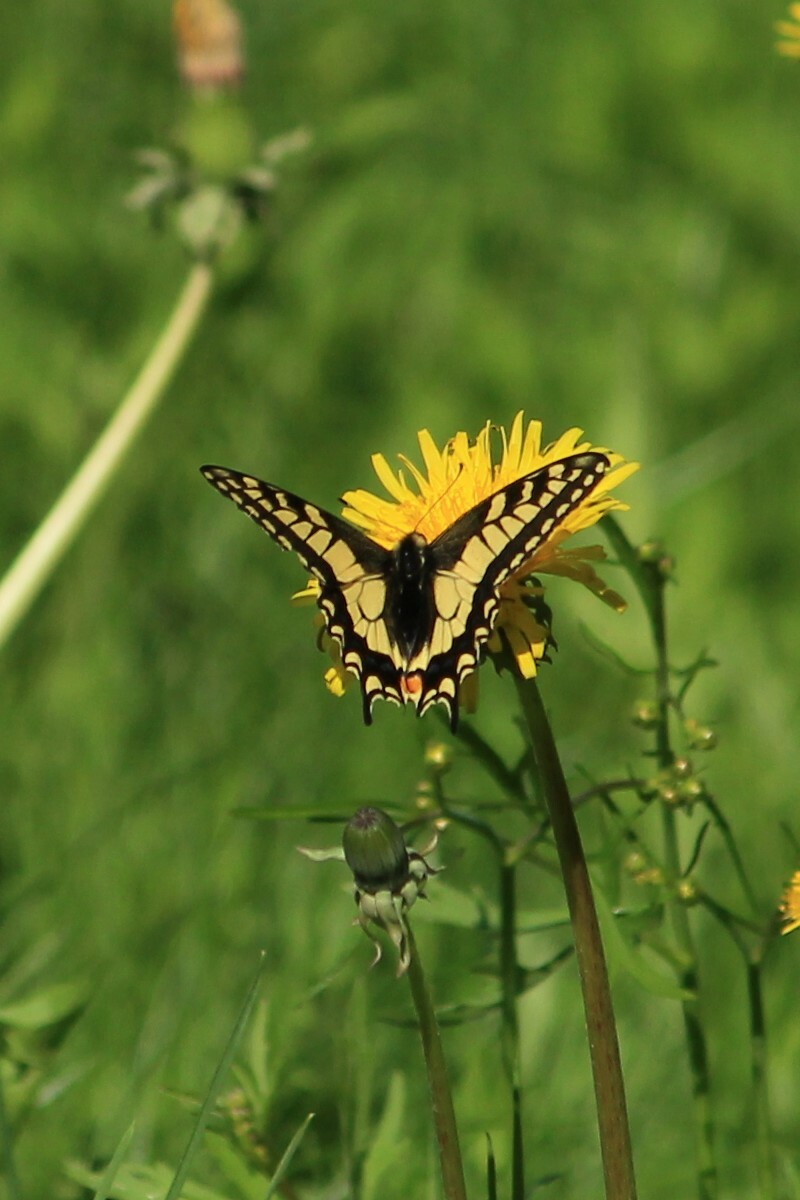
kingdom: Animalia
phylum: Arthropoda
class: Insecta
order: Lepidoptera
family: Papilionidae
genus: Papilio
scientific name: Papilio machaon
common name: Swallowtail
